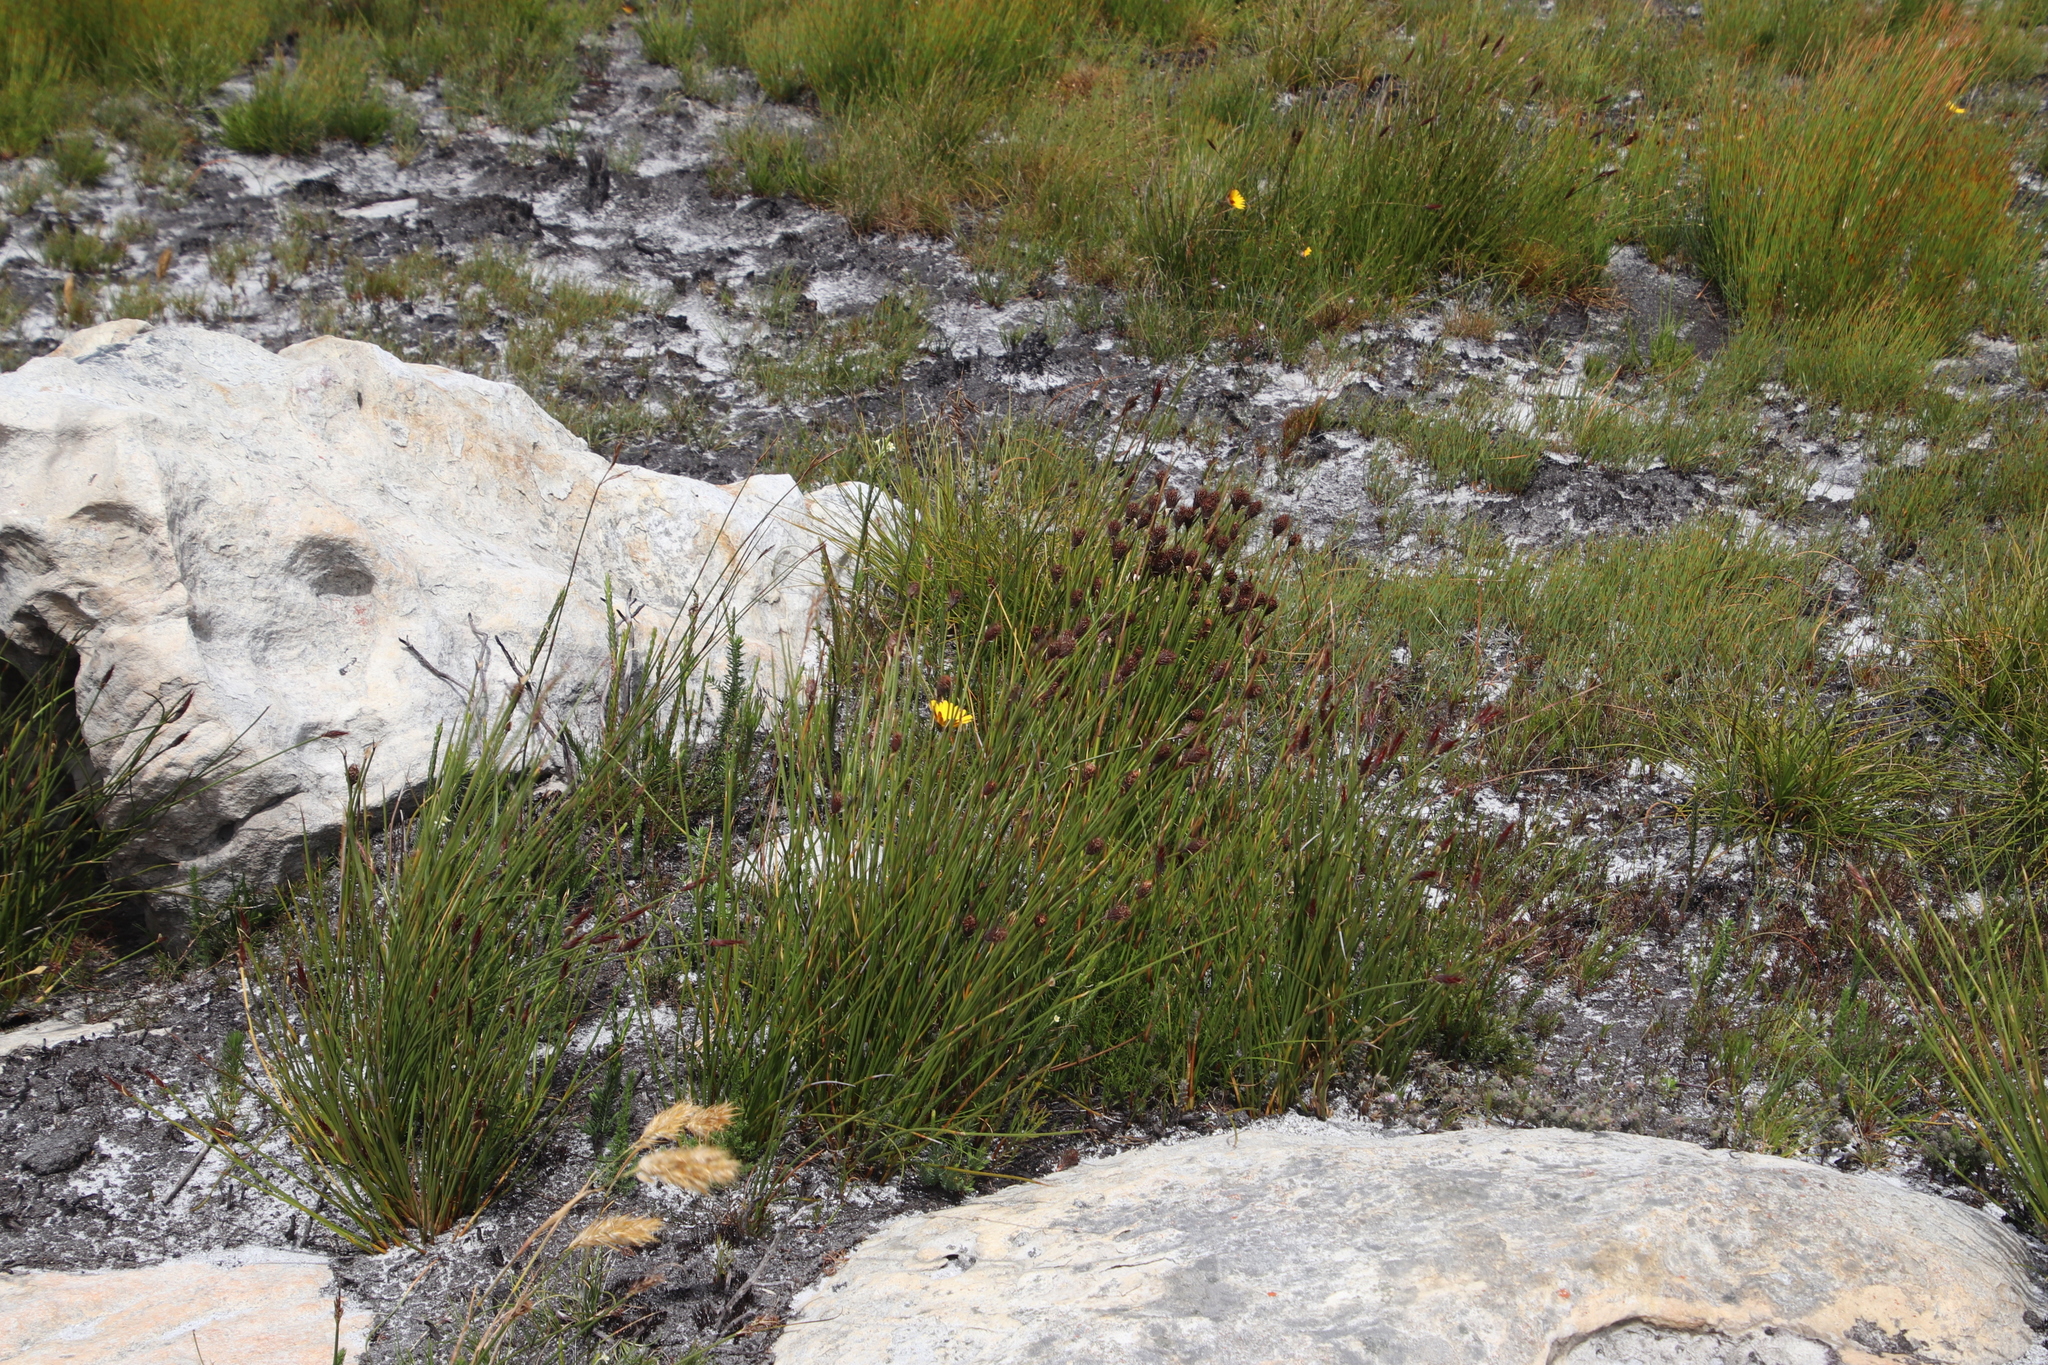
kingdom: Plantae
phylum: Tracheophyta
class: Liliopsida
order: Poales
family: Restionaceae
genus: Hypodiscus
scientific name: Hypodiscus aristatus
